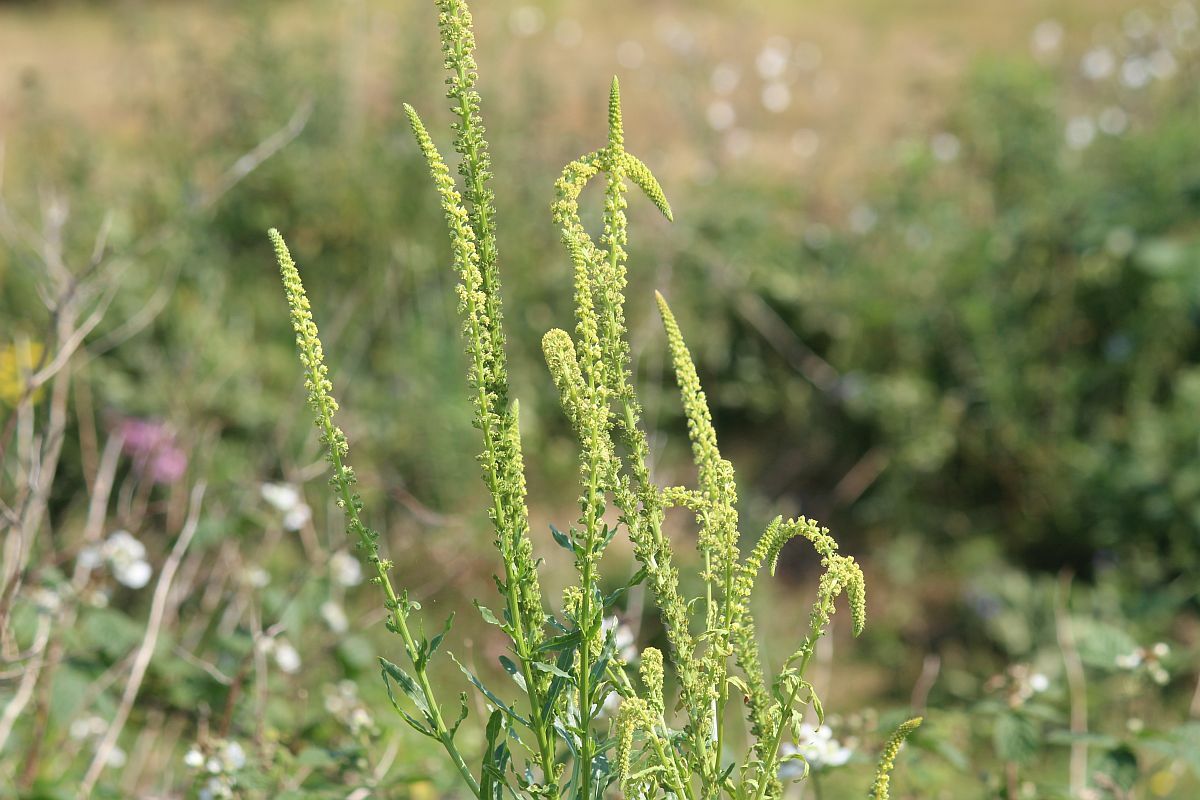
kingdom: Plantae
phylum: Tracheophyta
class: Magnoliopsida
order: Brassicales
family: Resedaceae
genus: Reseda
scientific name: Reseda luteola
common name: Weld
